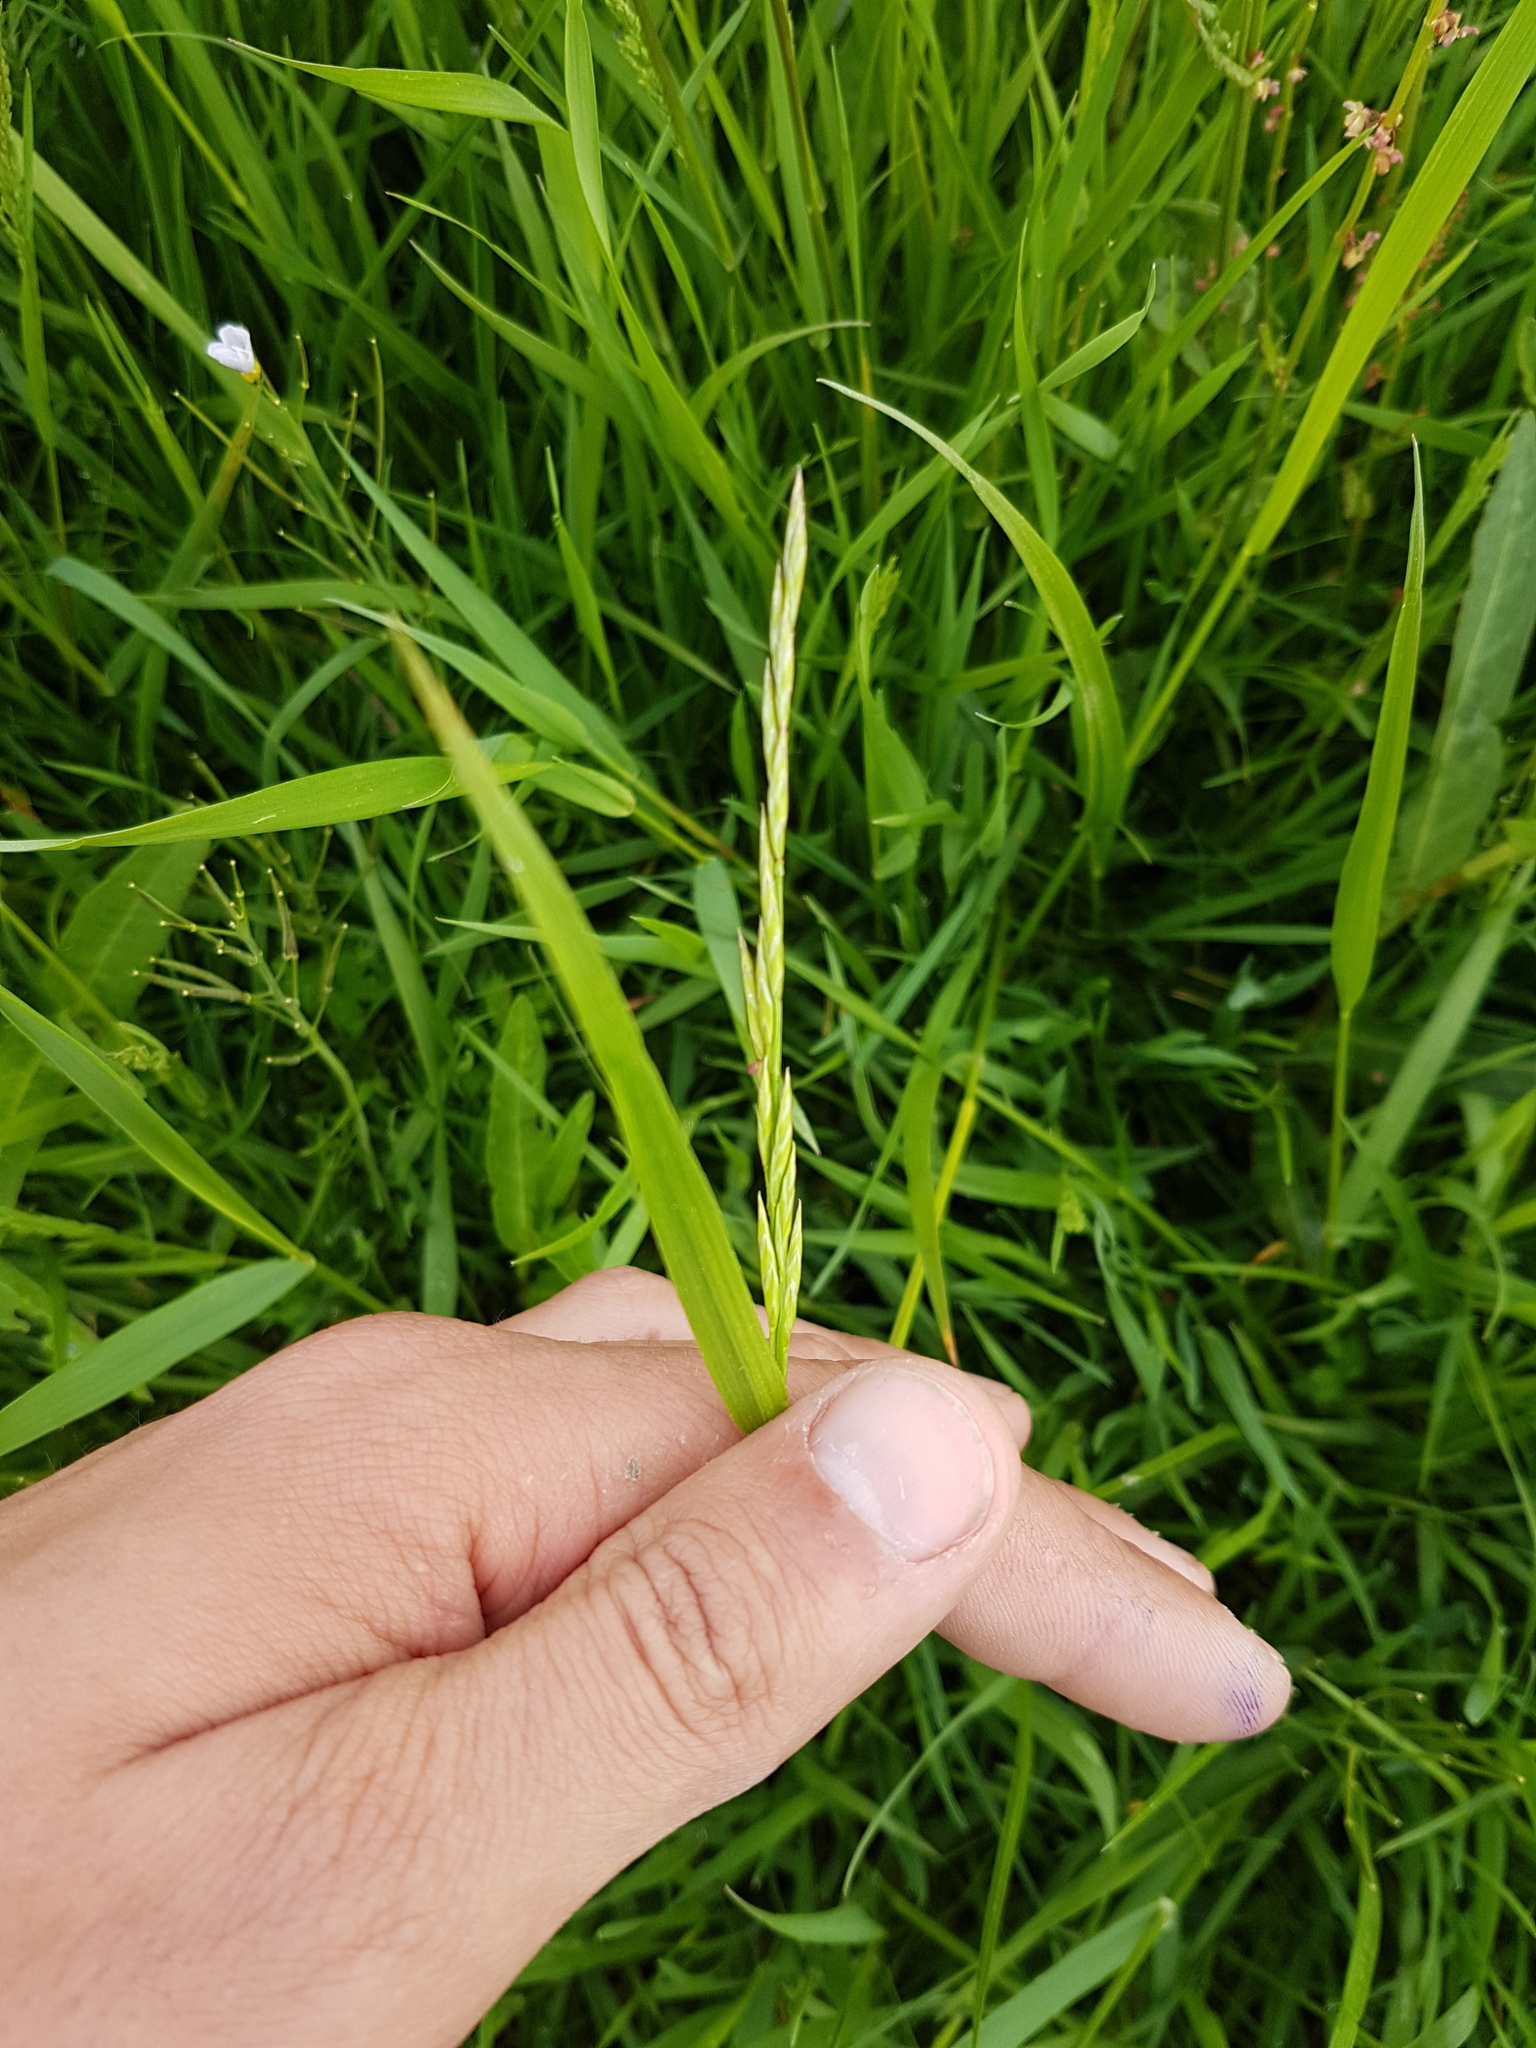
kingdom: Plantae
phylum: Tracheophyta
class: Liliopsida
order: Poales
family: Poaceae
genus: Lolium
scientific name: Lolium pratense
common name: Dover grass
